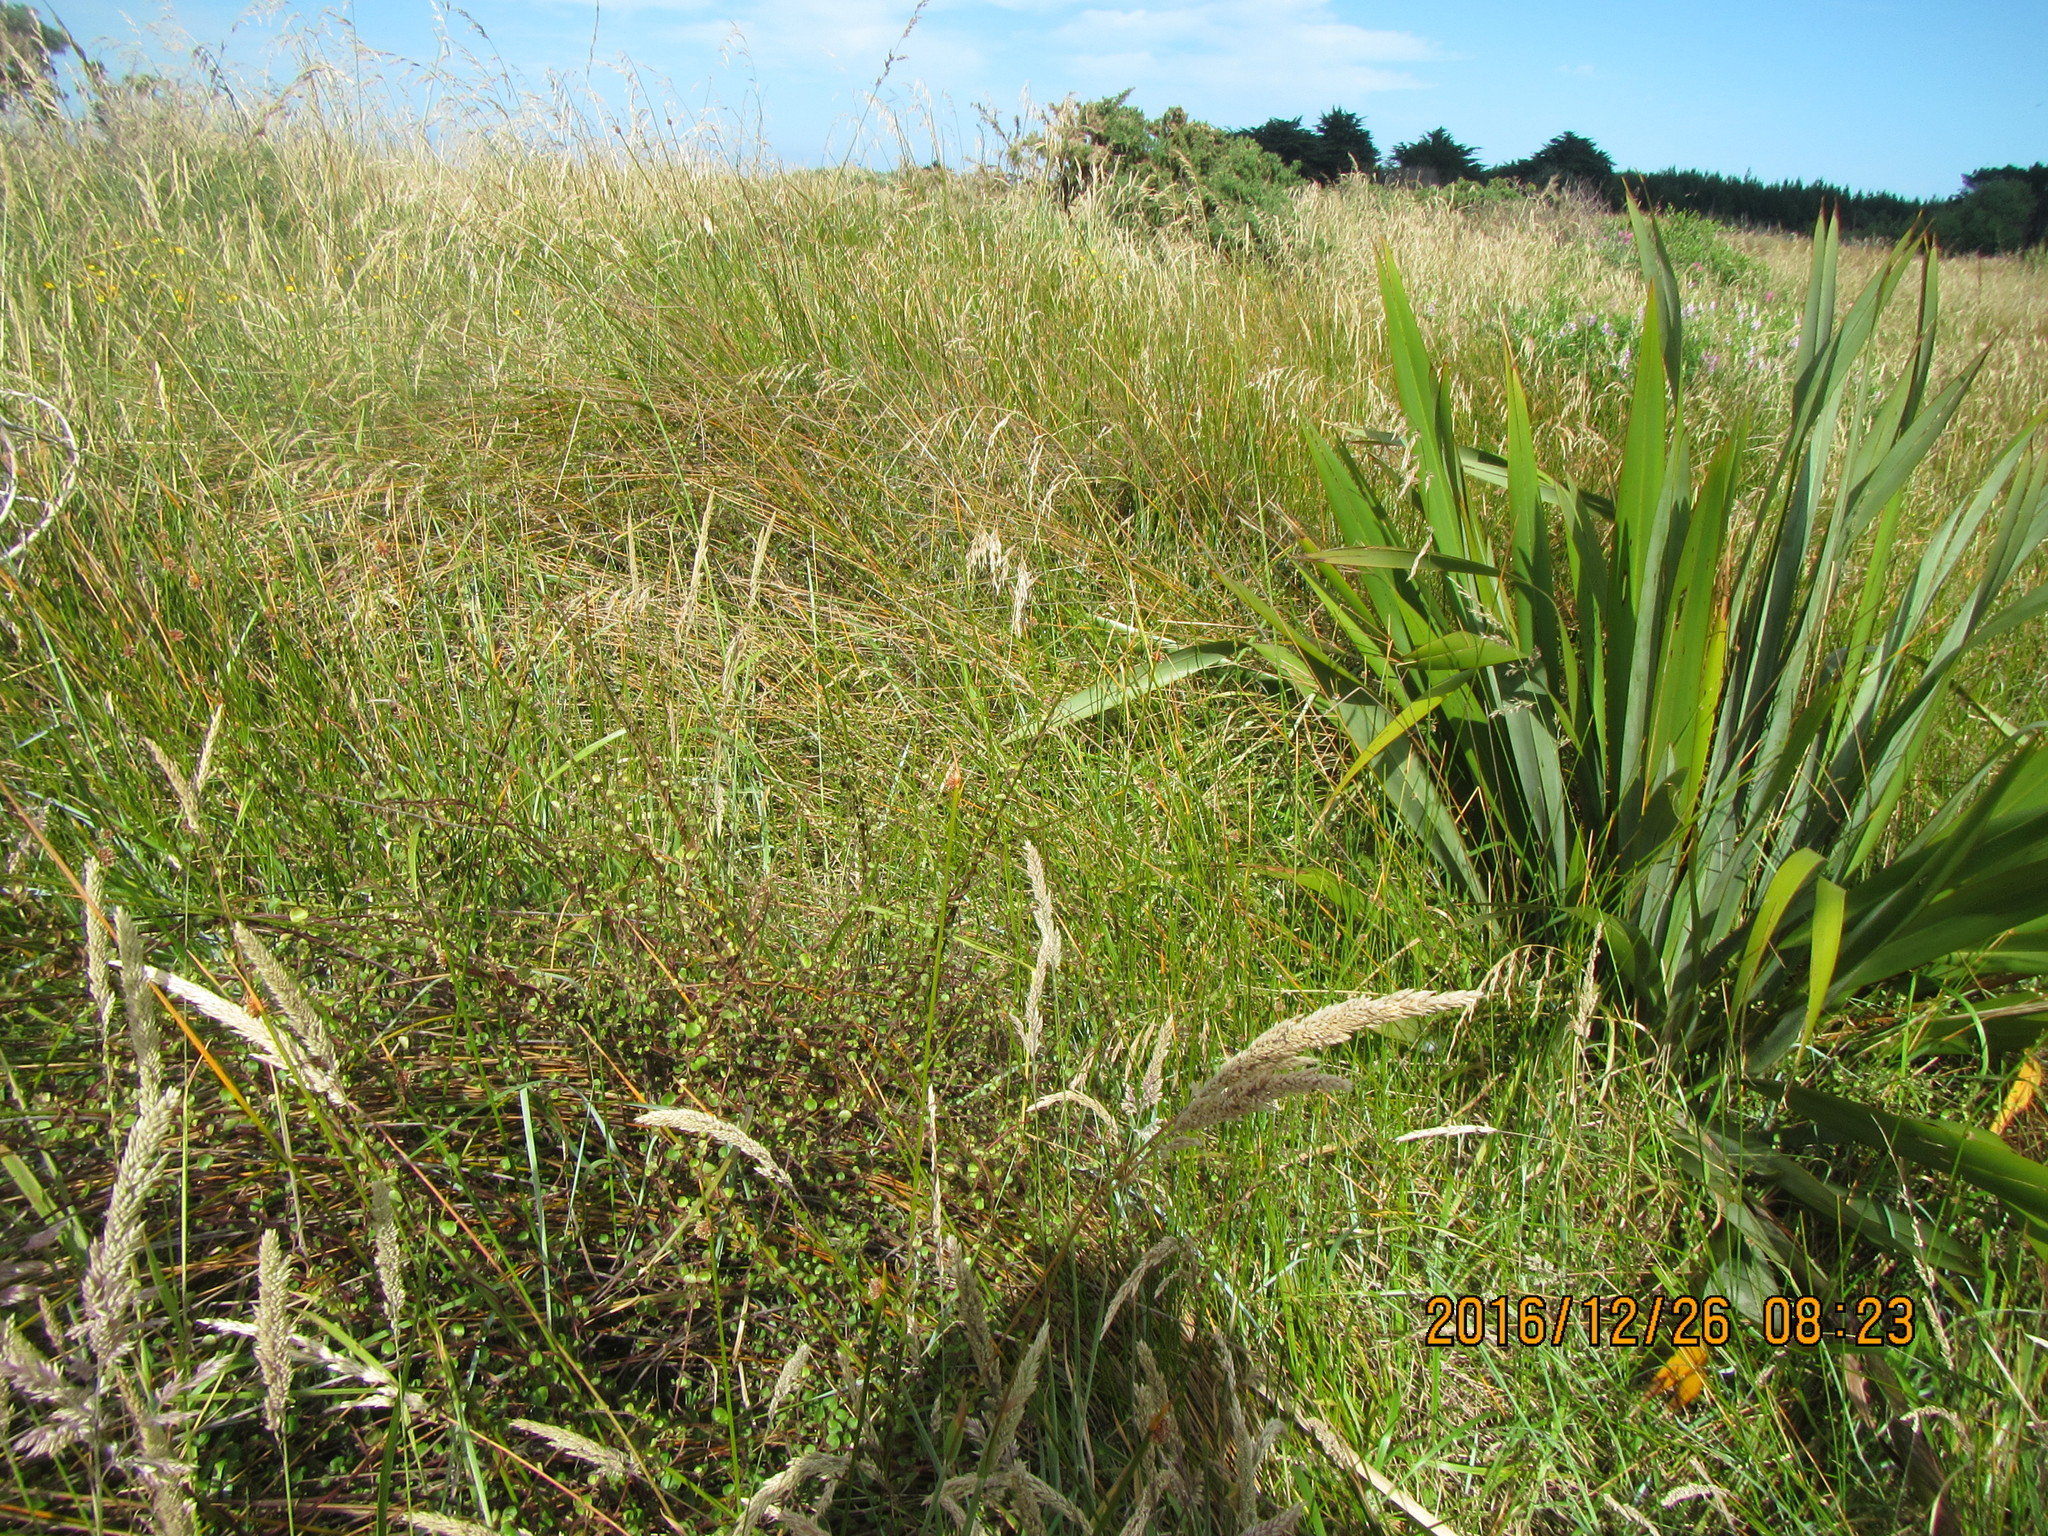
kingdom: Plantae
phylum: Tracheophyta
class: Magnoliopsida
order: Caryophyllales
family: Polygonaceae
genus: Muehlenbeckia
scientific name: Muehlenbeckia complexa
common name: Wireplant
